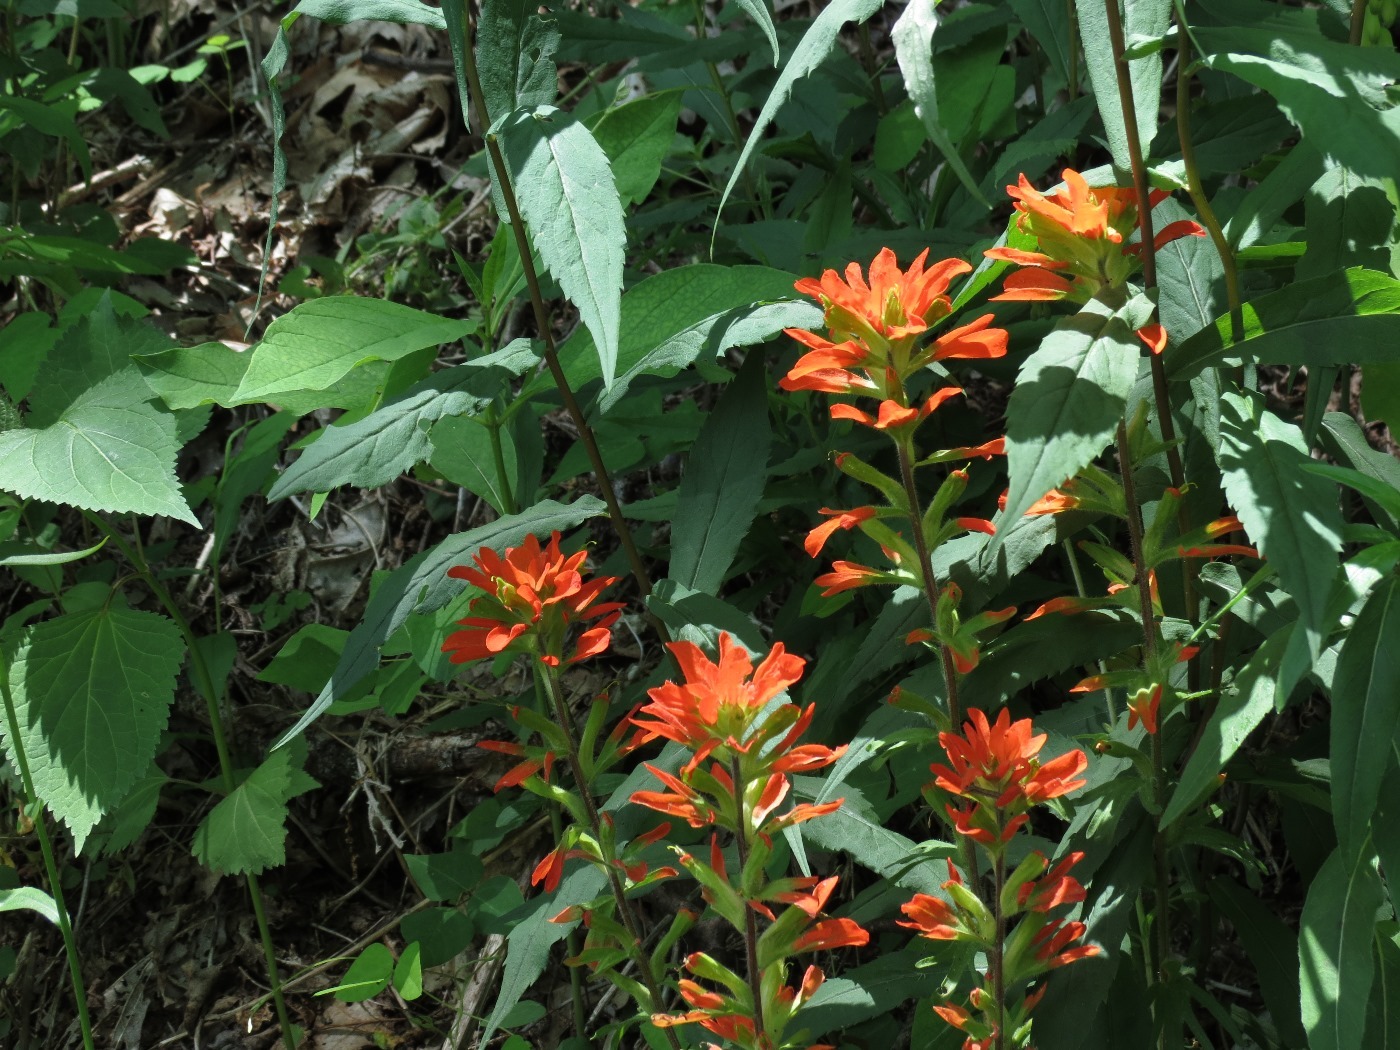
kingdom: Plantae
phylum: Tracheophyta
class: Magnoliopsida
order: Lamiales
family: Orobanchaceae
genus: Castilleja
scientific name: Castilleja coccinea
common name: Scarlet paintbrush
